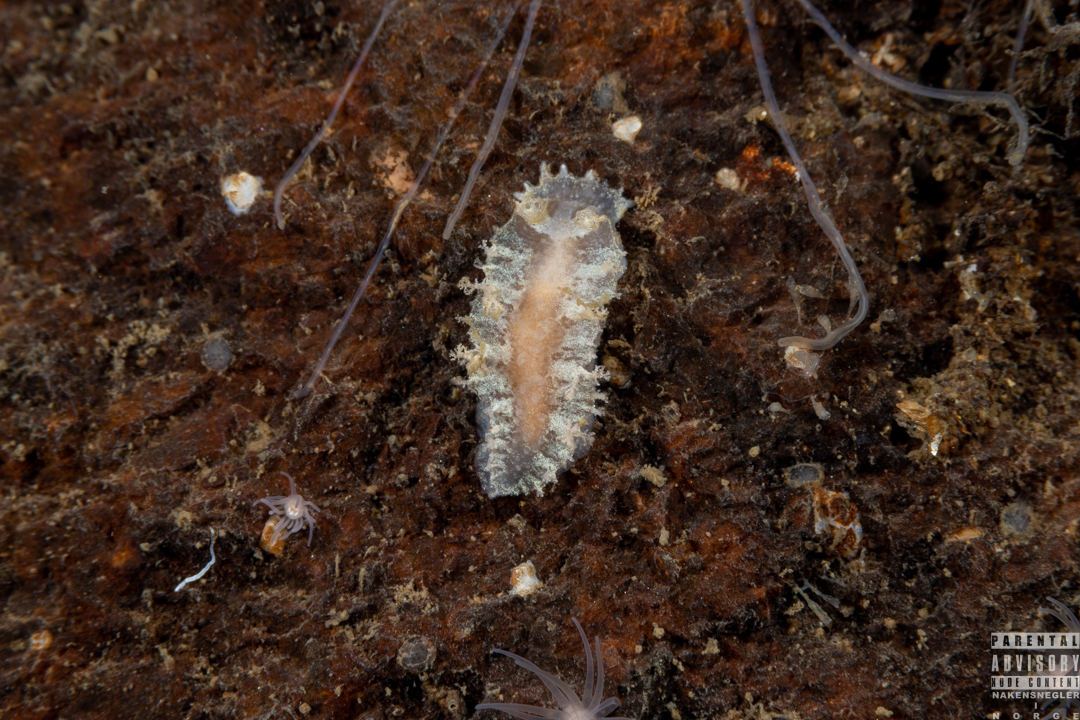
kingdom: Animalia
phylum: Mollusca
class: Gastropoda
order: Nudibranchia
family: Tritoniidae
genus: Duvaucelia
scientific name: Duvaucelia plebeia
